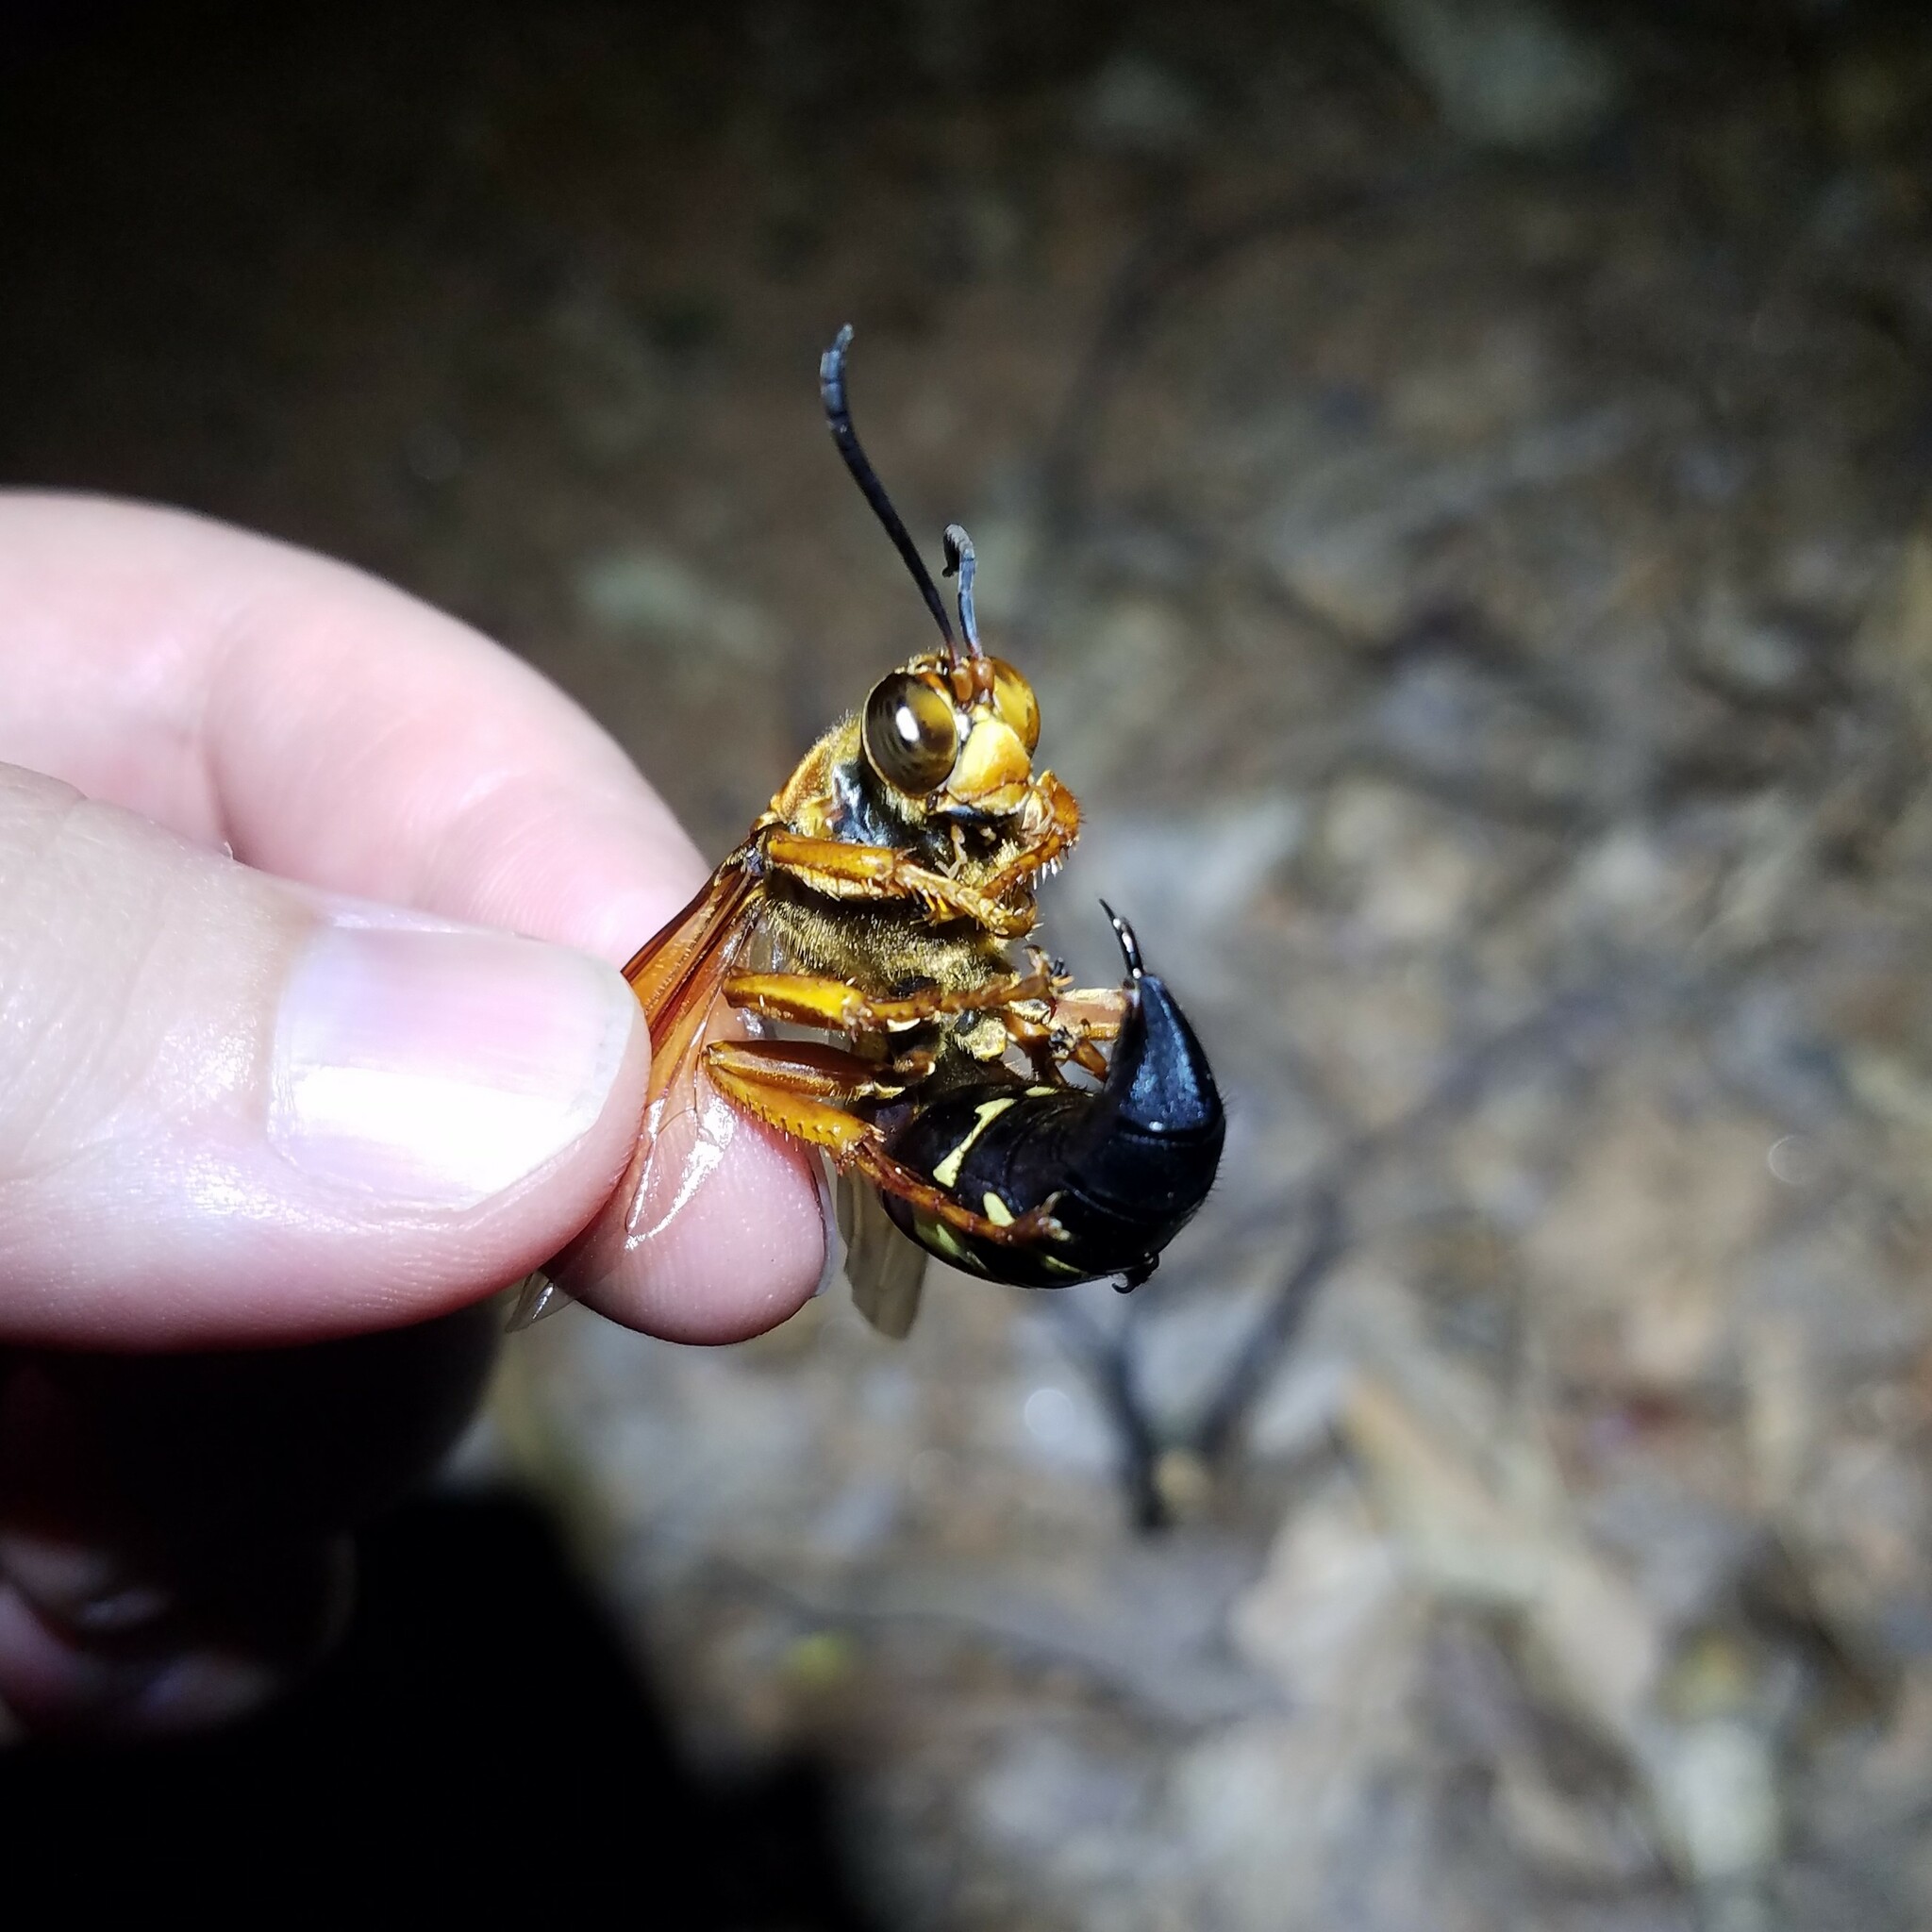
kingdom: Animalia
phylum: Arthropoda
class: Insecta
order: Hymenoptera
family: Crabronidae
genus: Sphecius
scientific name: Sphecius speciosus
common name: Cicada killer
